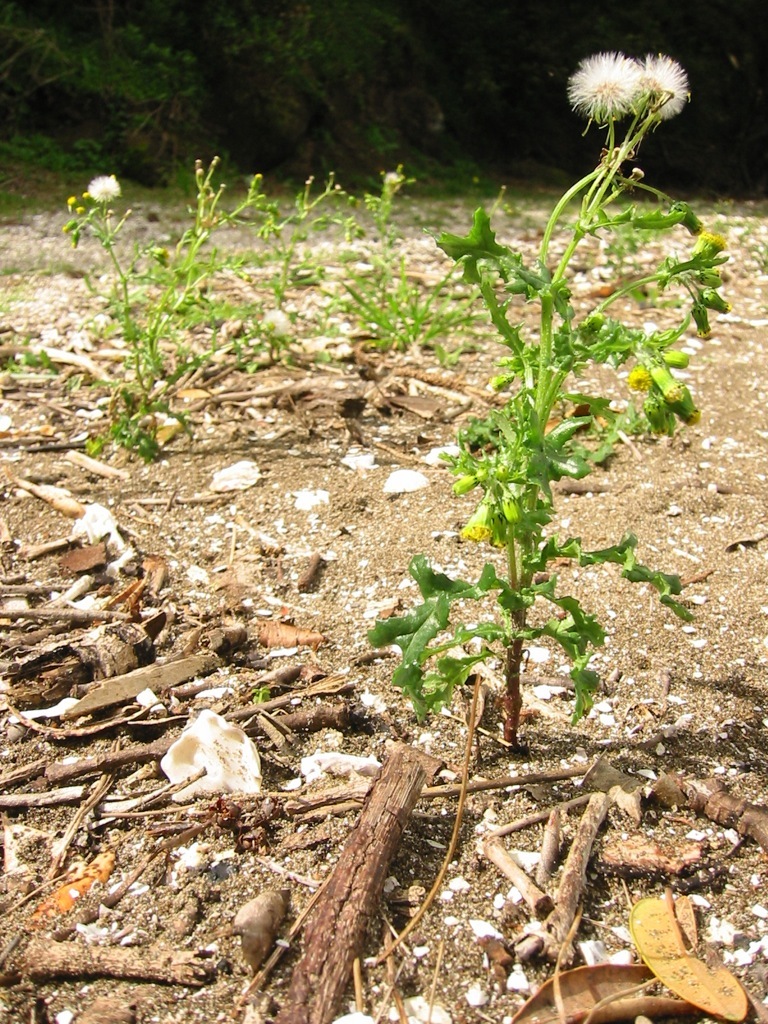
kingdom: Plantae
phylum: Tracheophyta
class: Magnoliopsida
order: Asterales
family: Asteraceae
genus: Senecio
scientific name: Senecio vulgaris
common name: Old-man-in-the-spring
